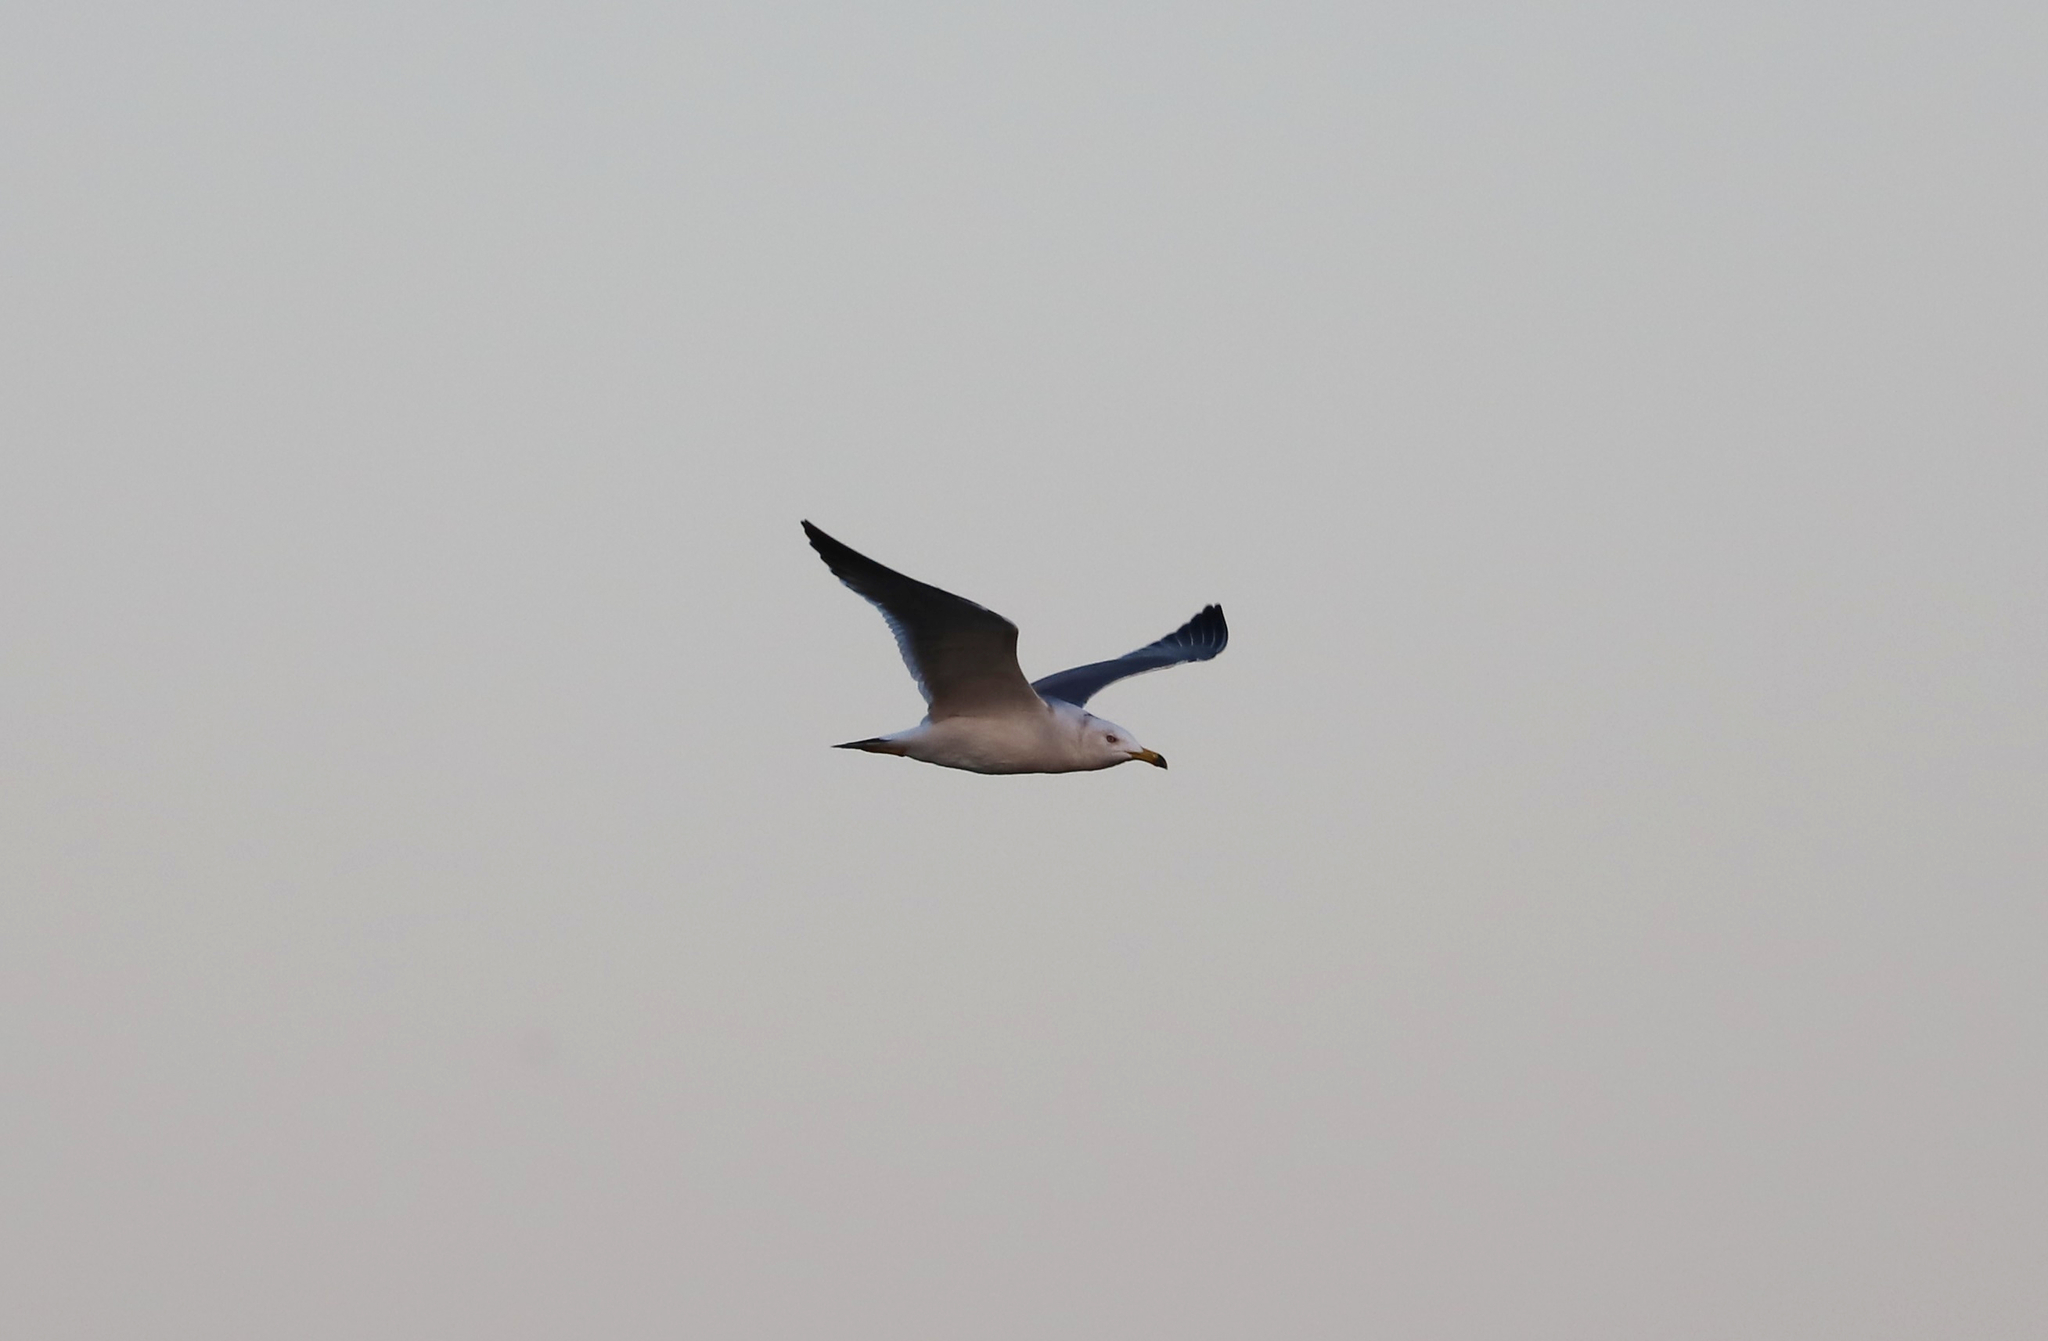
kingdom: Animalia
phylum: Chordata
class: Aves
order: Charadriiformes
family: Laridae
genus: Larus
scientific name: Larus crassirostris
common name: Black-tailed gull
